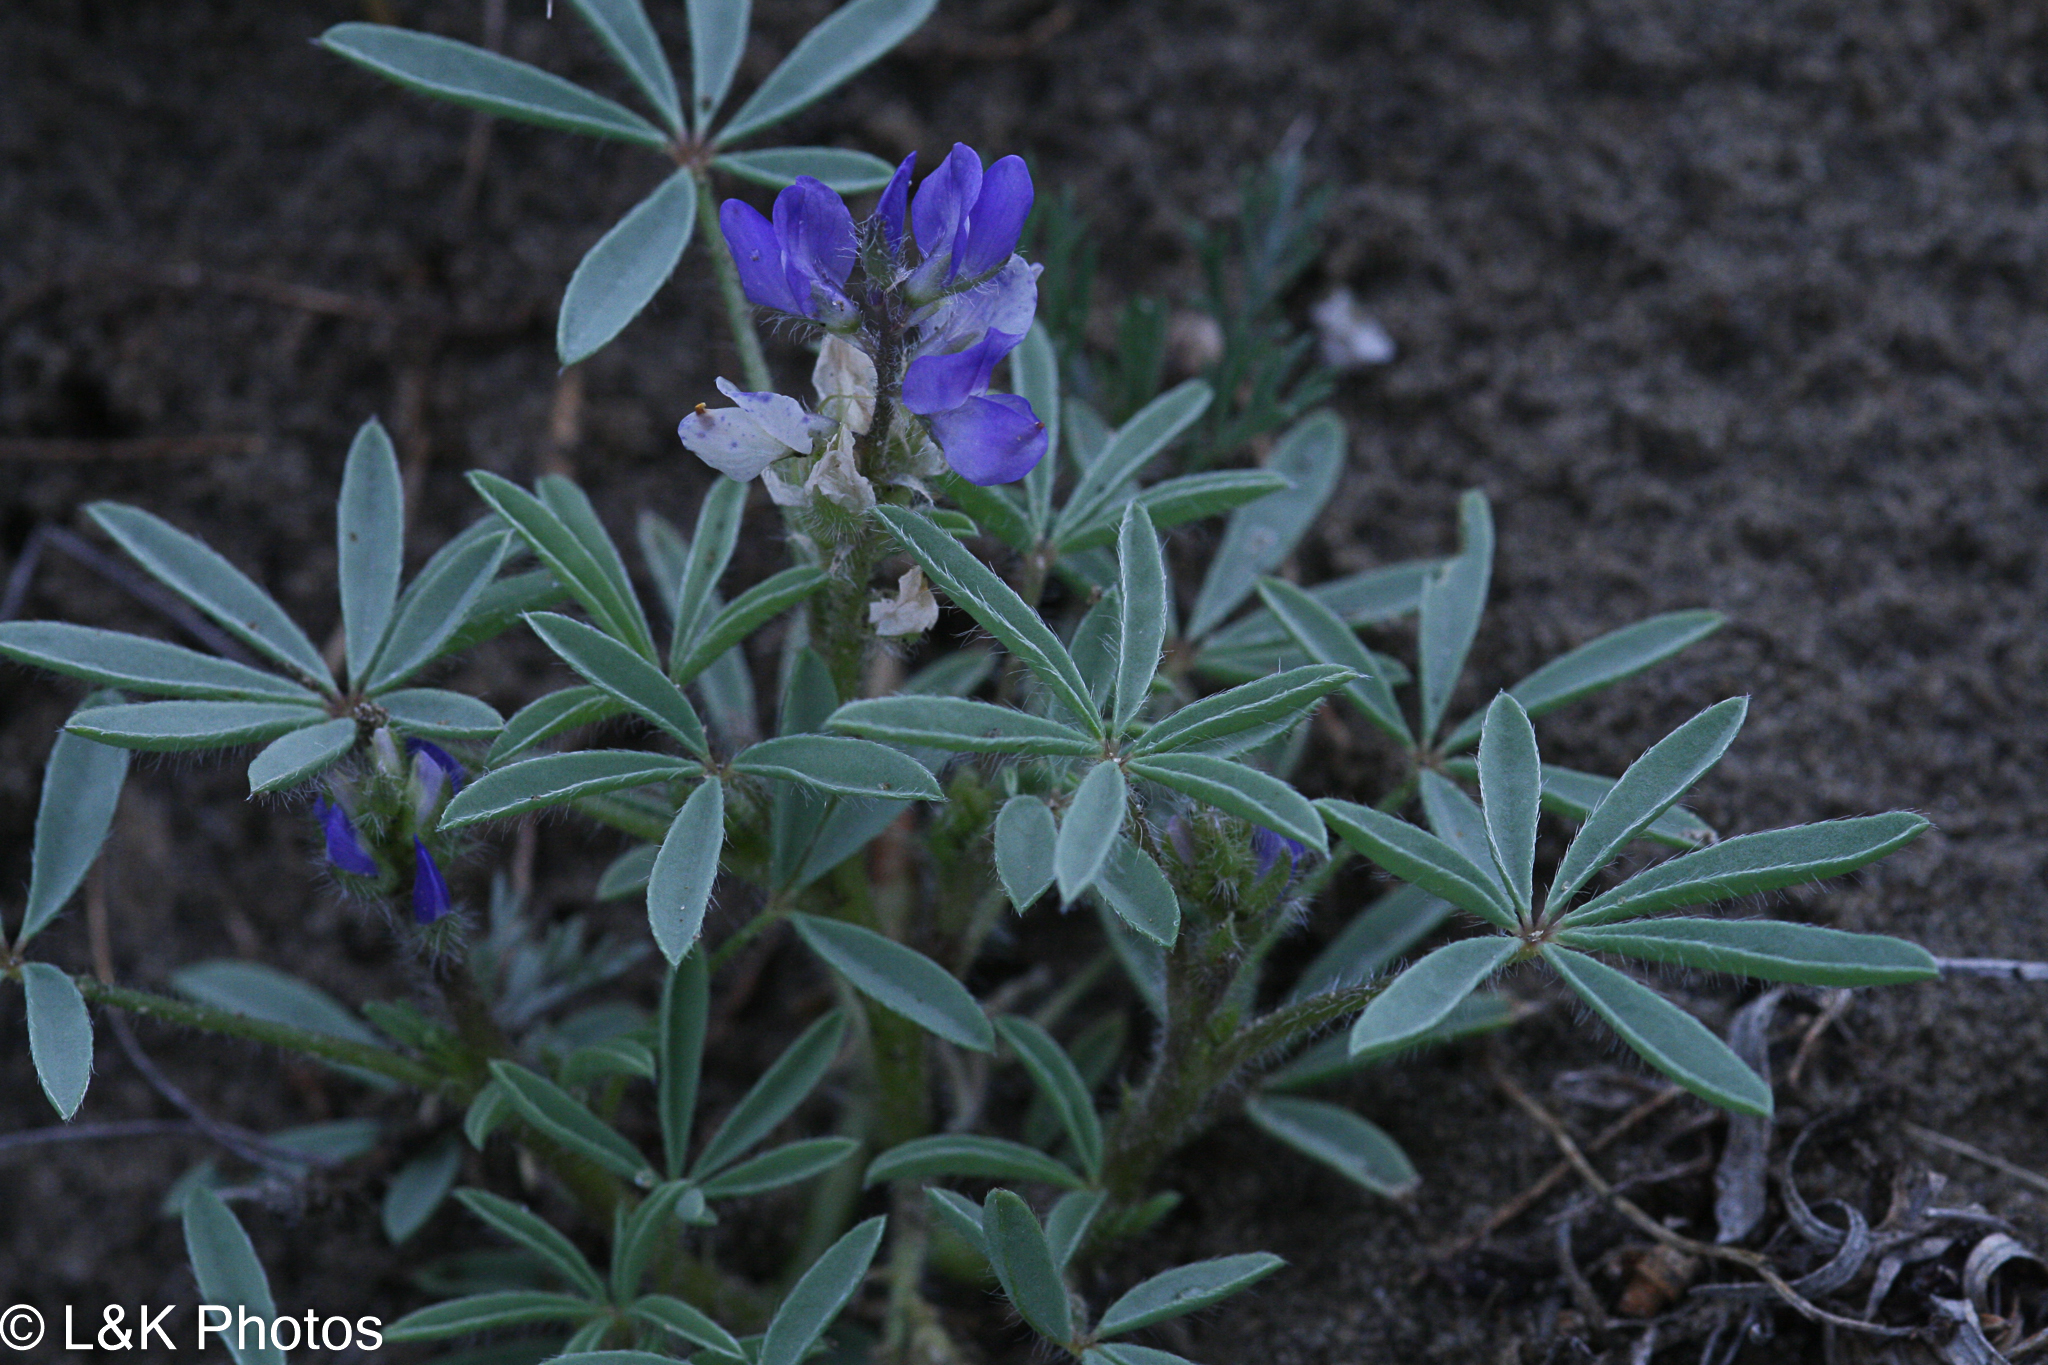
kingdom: Plantae
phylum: Tracheophyta
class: Magnoliopsida
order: Fabales
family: Fabaceae
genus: Lupinus
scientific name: Lupinus pusillus
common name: Low lupine
